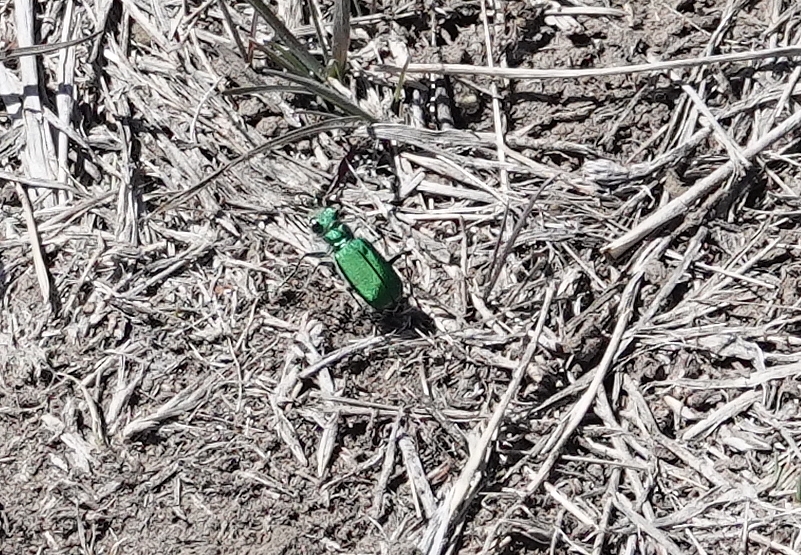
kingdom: Animalia
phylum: Arthropoda
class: Insecta
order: Coleoptera
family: Carabidae
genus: Cicindela
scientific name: Cicindela denverensis
